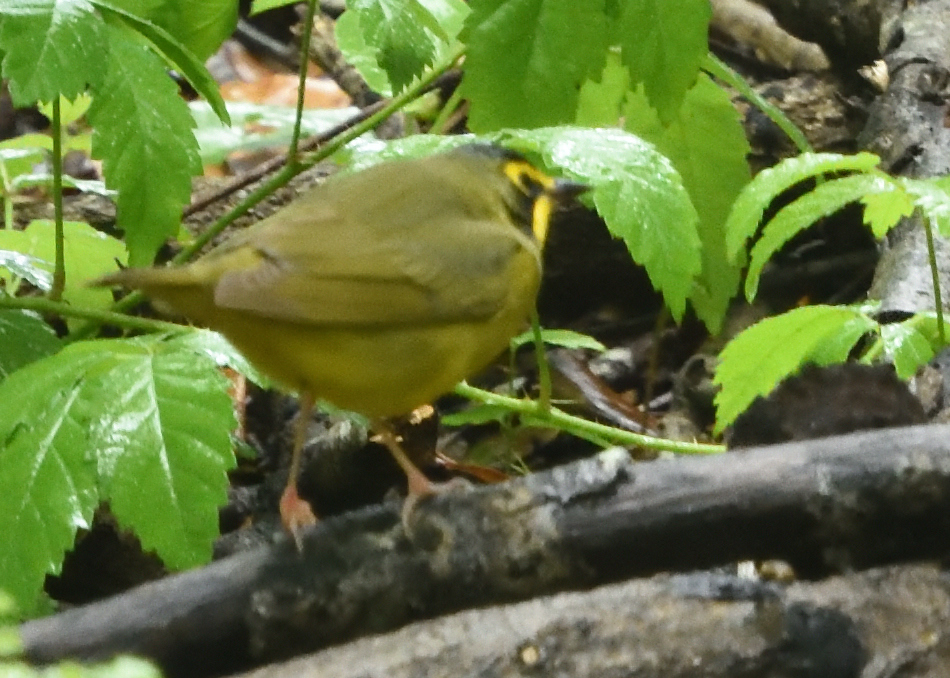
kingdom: Animalia
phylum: Chordata
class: Aves
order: Passeriformes
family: Parulidae
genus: Geothlypis
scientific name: Geothlypis formosa
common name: Kentucky warbler
